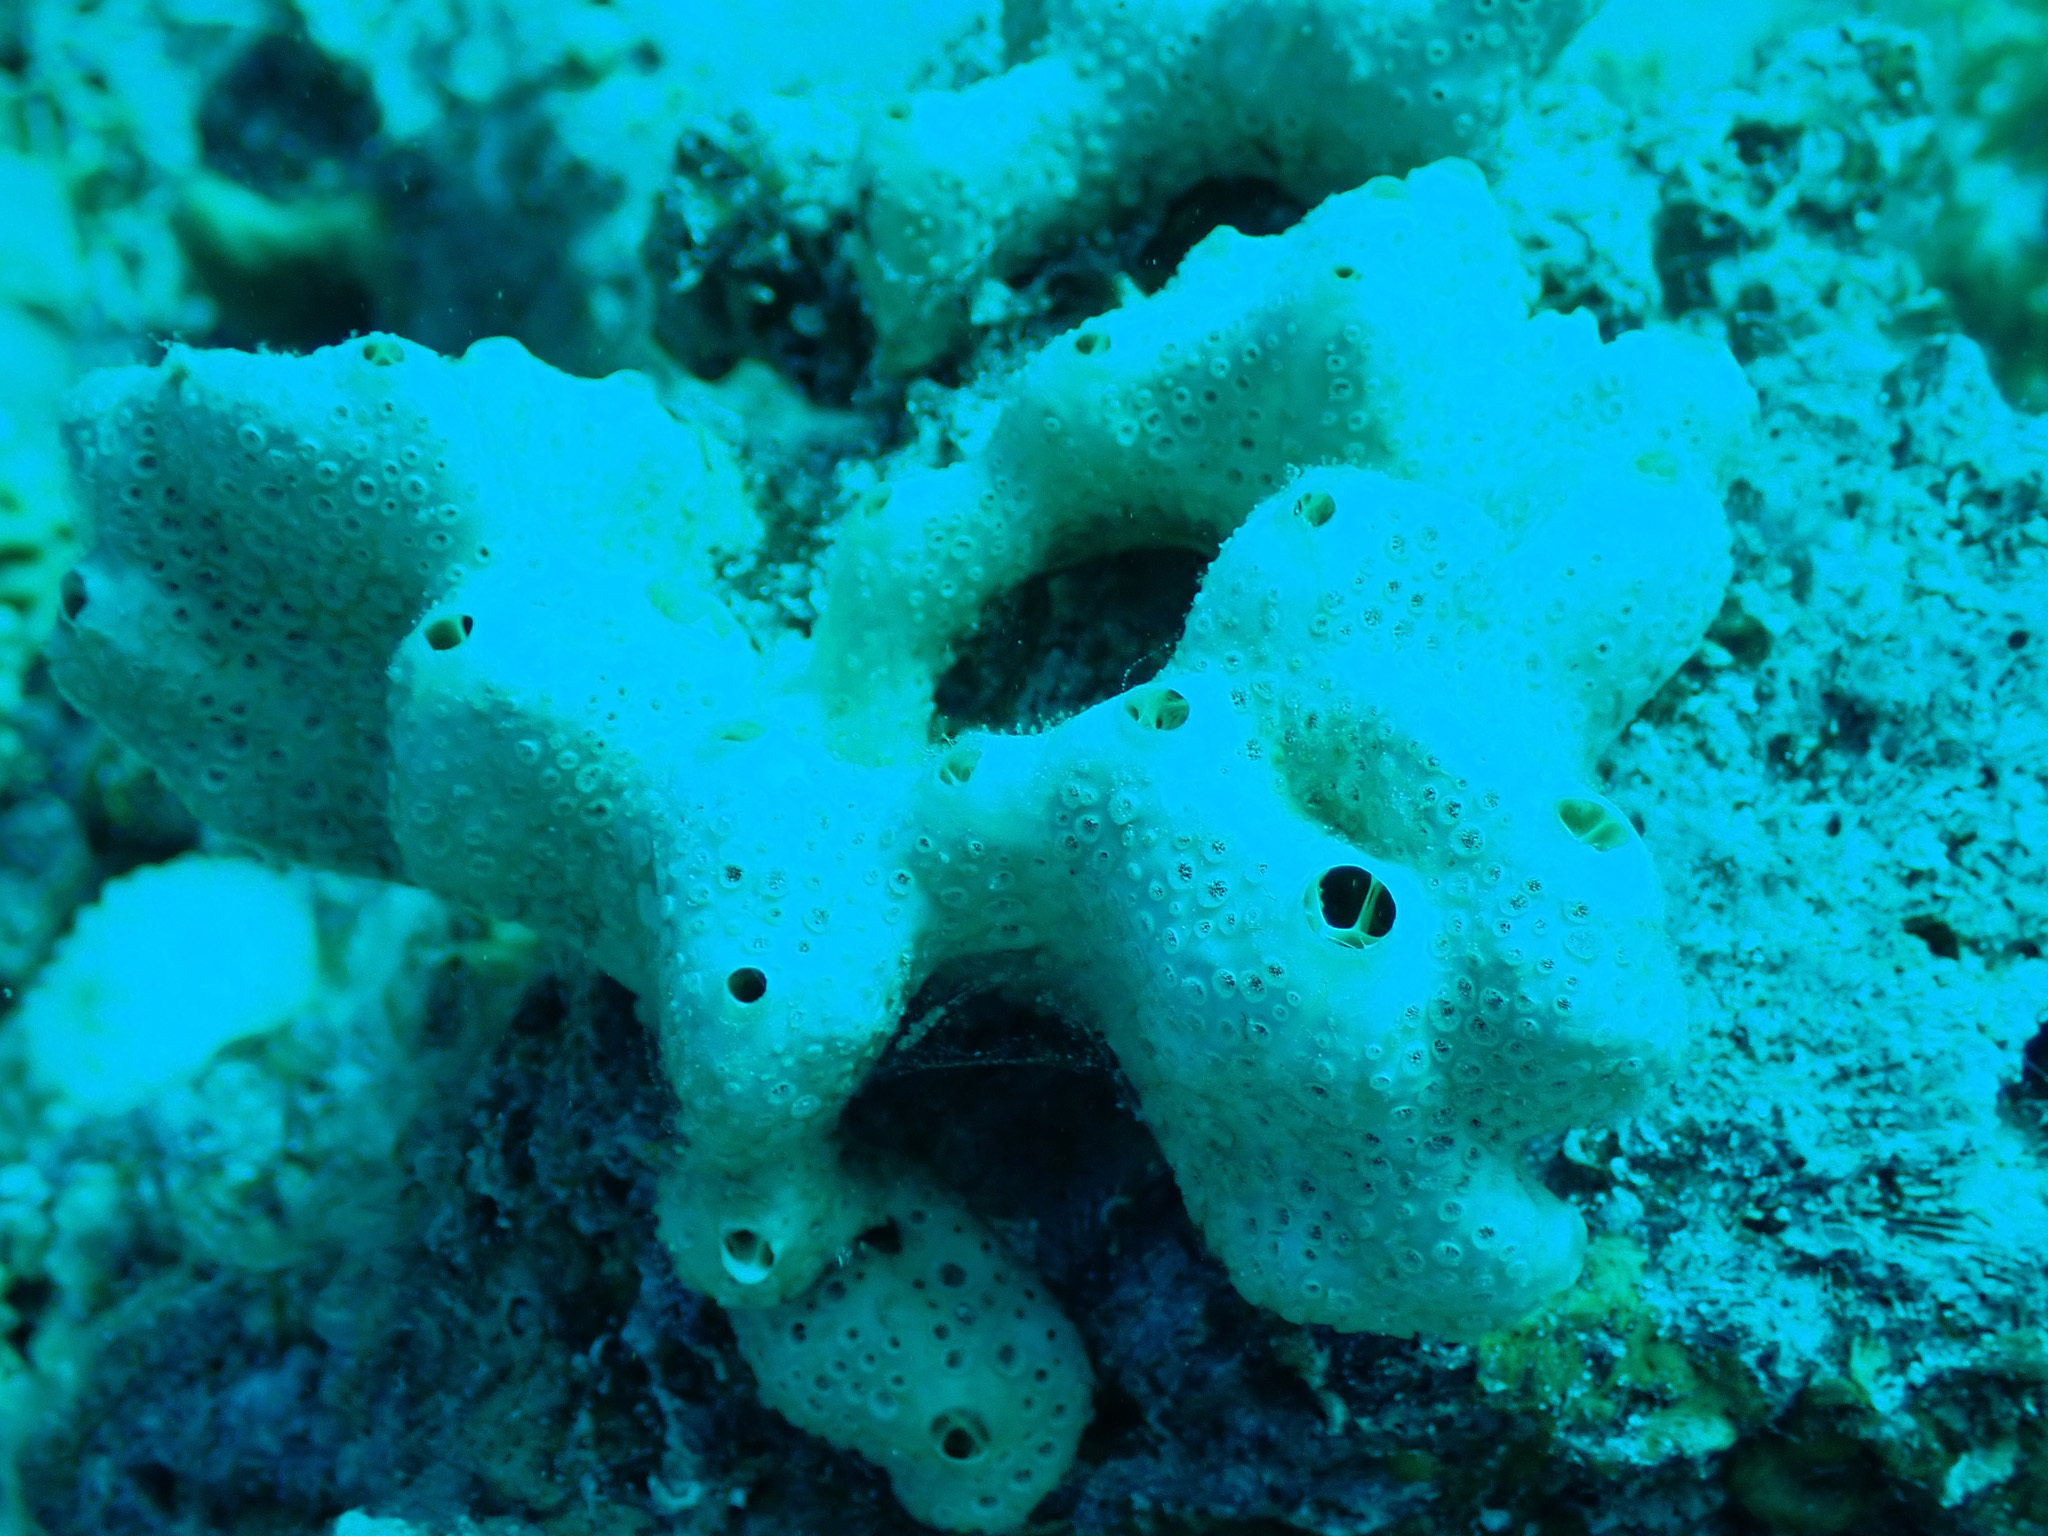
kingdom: Animalia
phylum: Porifera
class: Demospongiae
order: Poecilosclerida
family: Crellidae
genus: Crella
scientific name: Crella cyathophora
